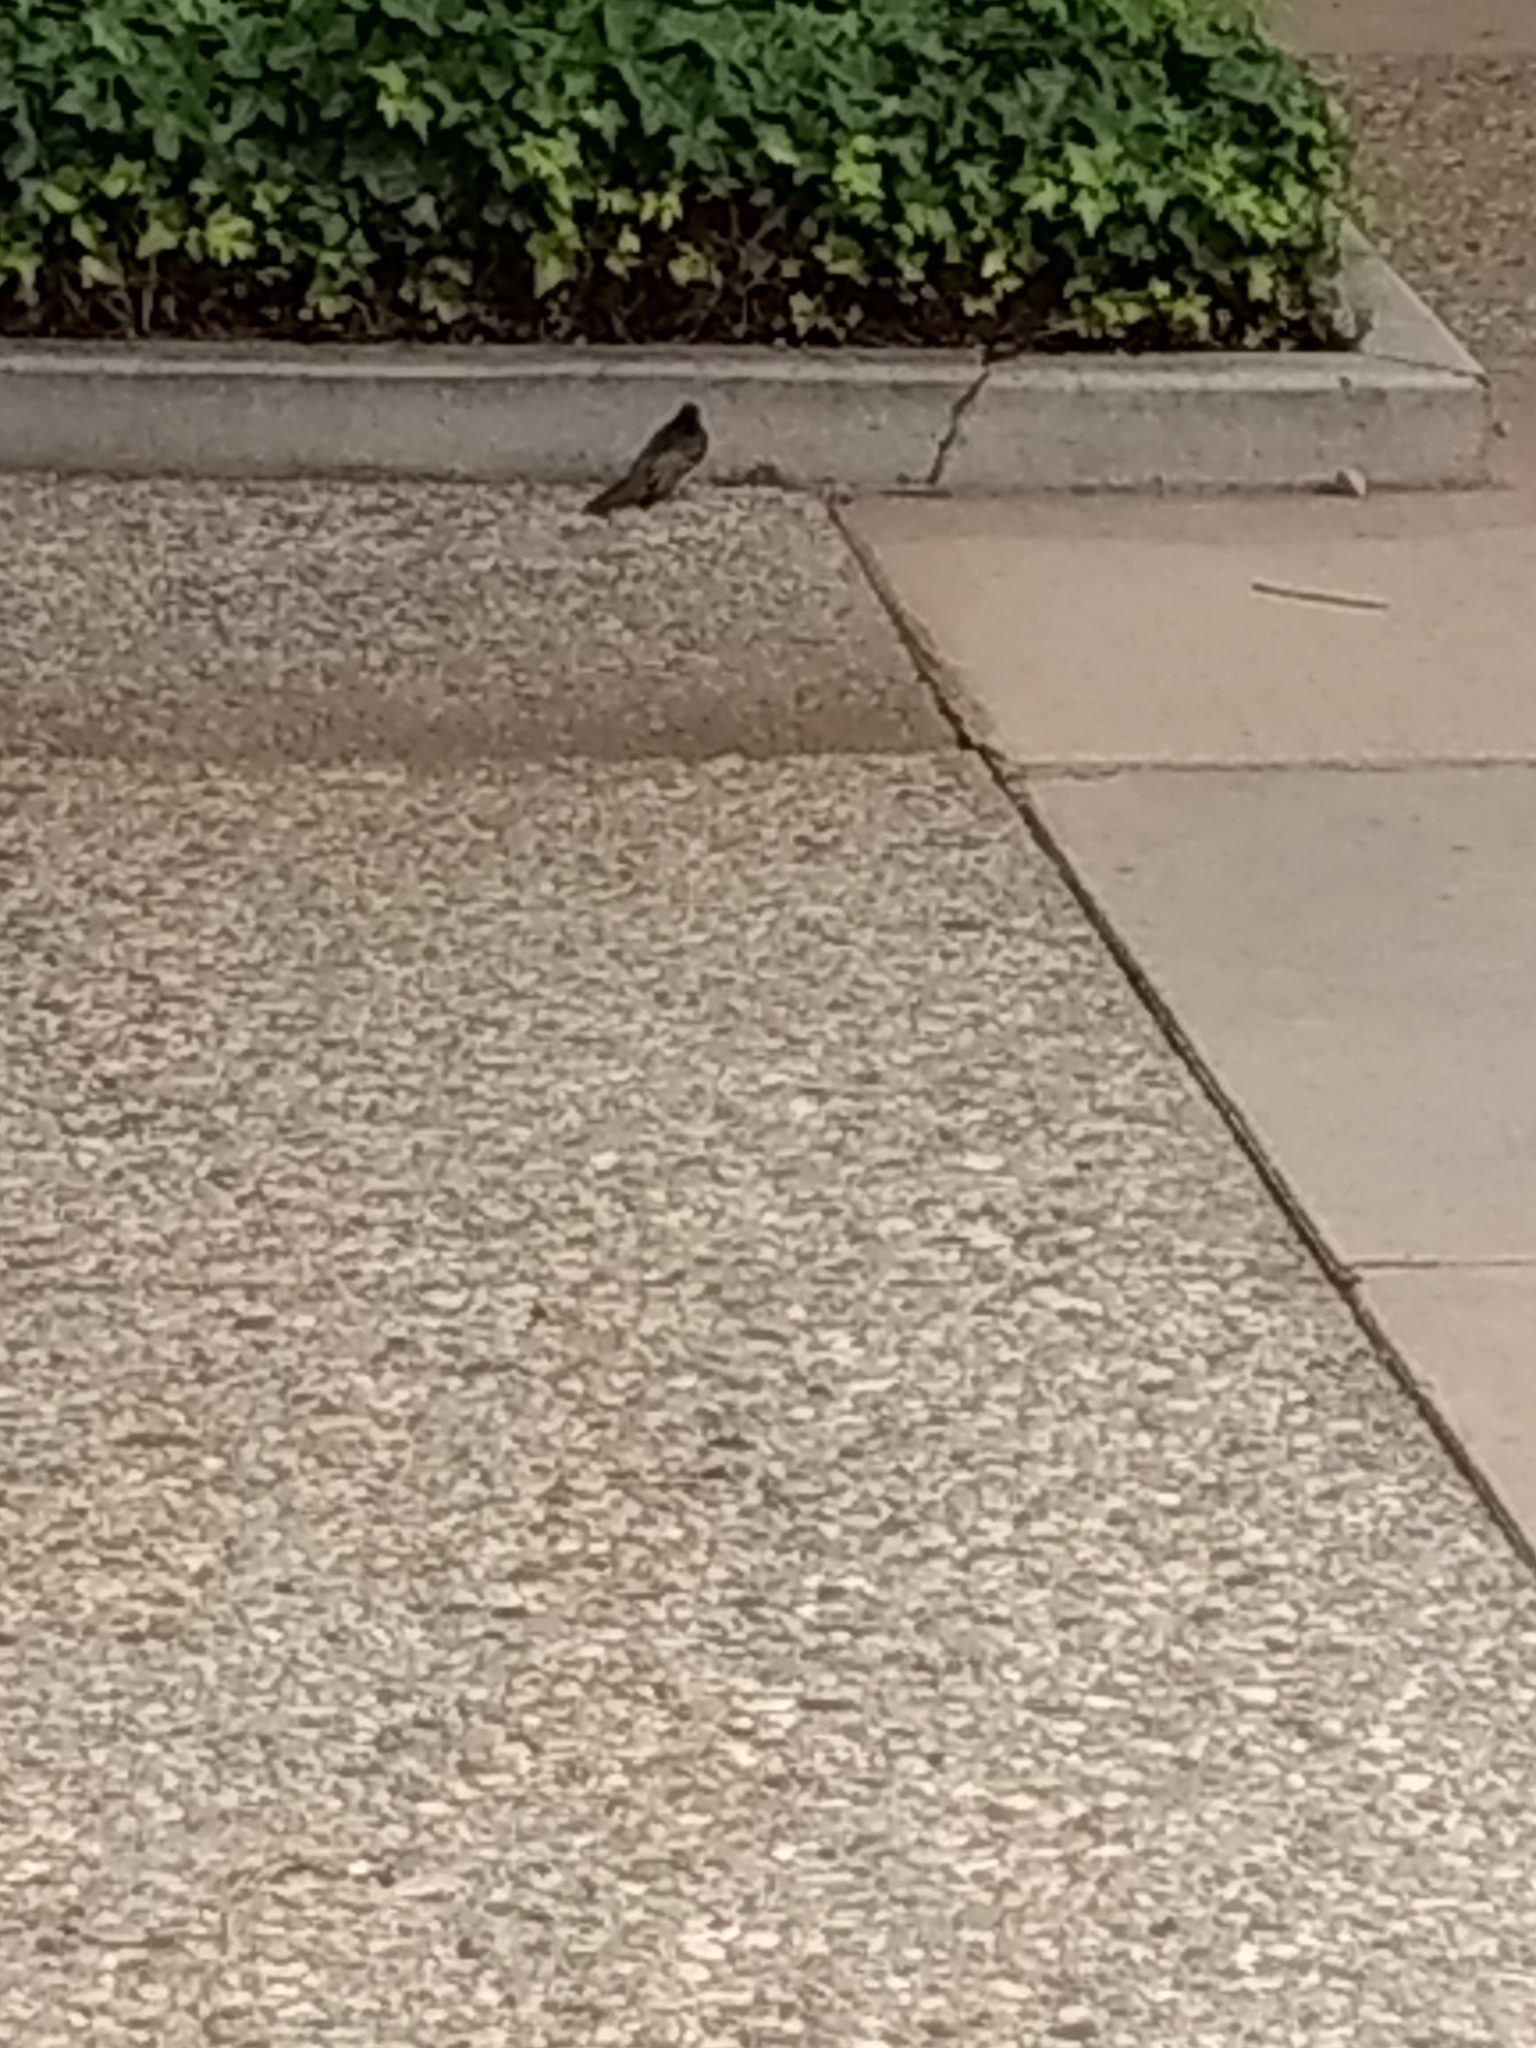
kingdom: Animalia
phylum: Chordata
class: Aves
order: Passeriformes
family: Tyrannidae
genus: Sayornis
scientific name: Sayornis nigricans
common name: Black phoebe
